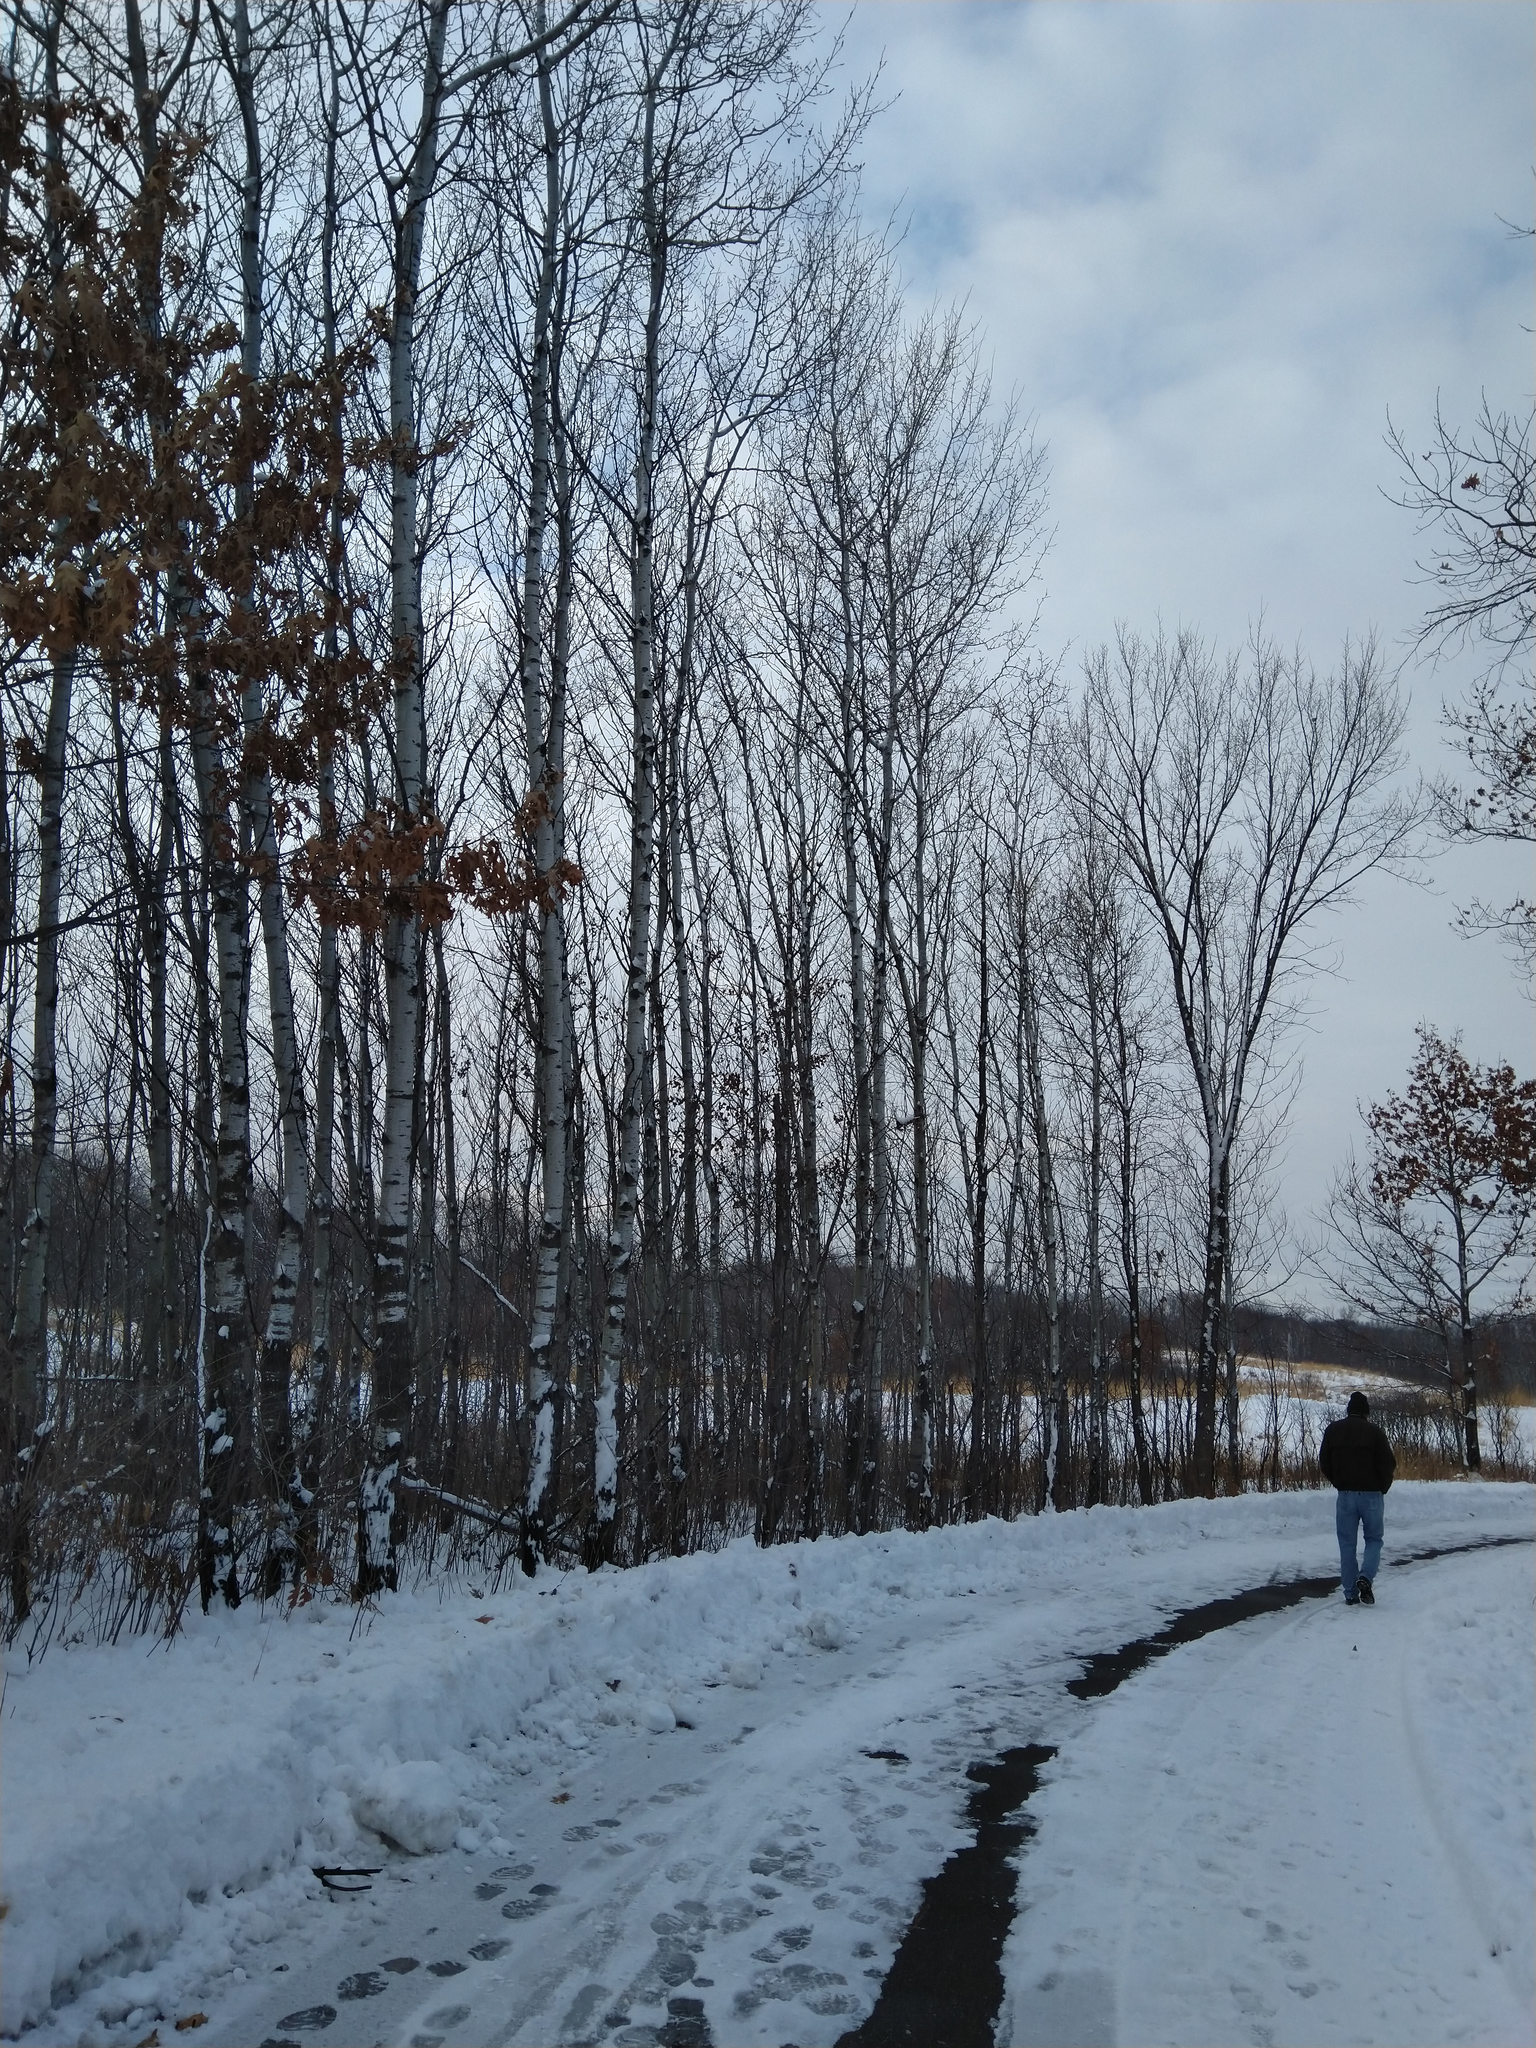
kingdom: Plantae
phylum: Tracheophyta
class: Magnoliopsida
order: Malpighiales
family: Salicaceae
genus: Populus
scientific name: Populus tremuloides
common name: Quaking aspen
